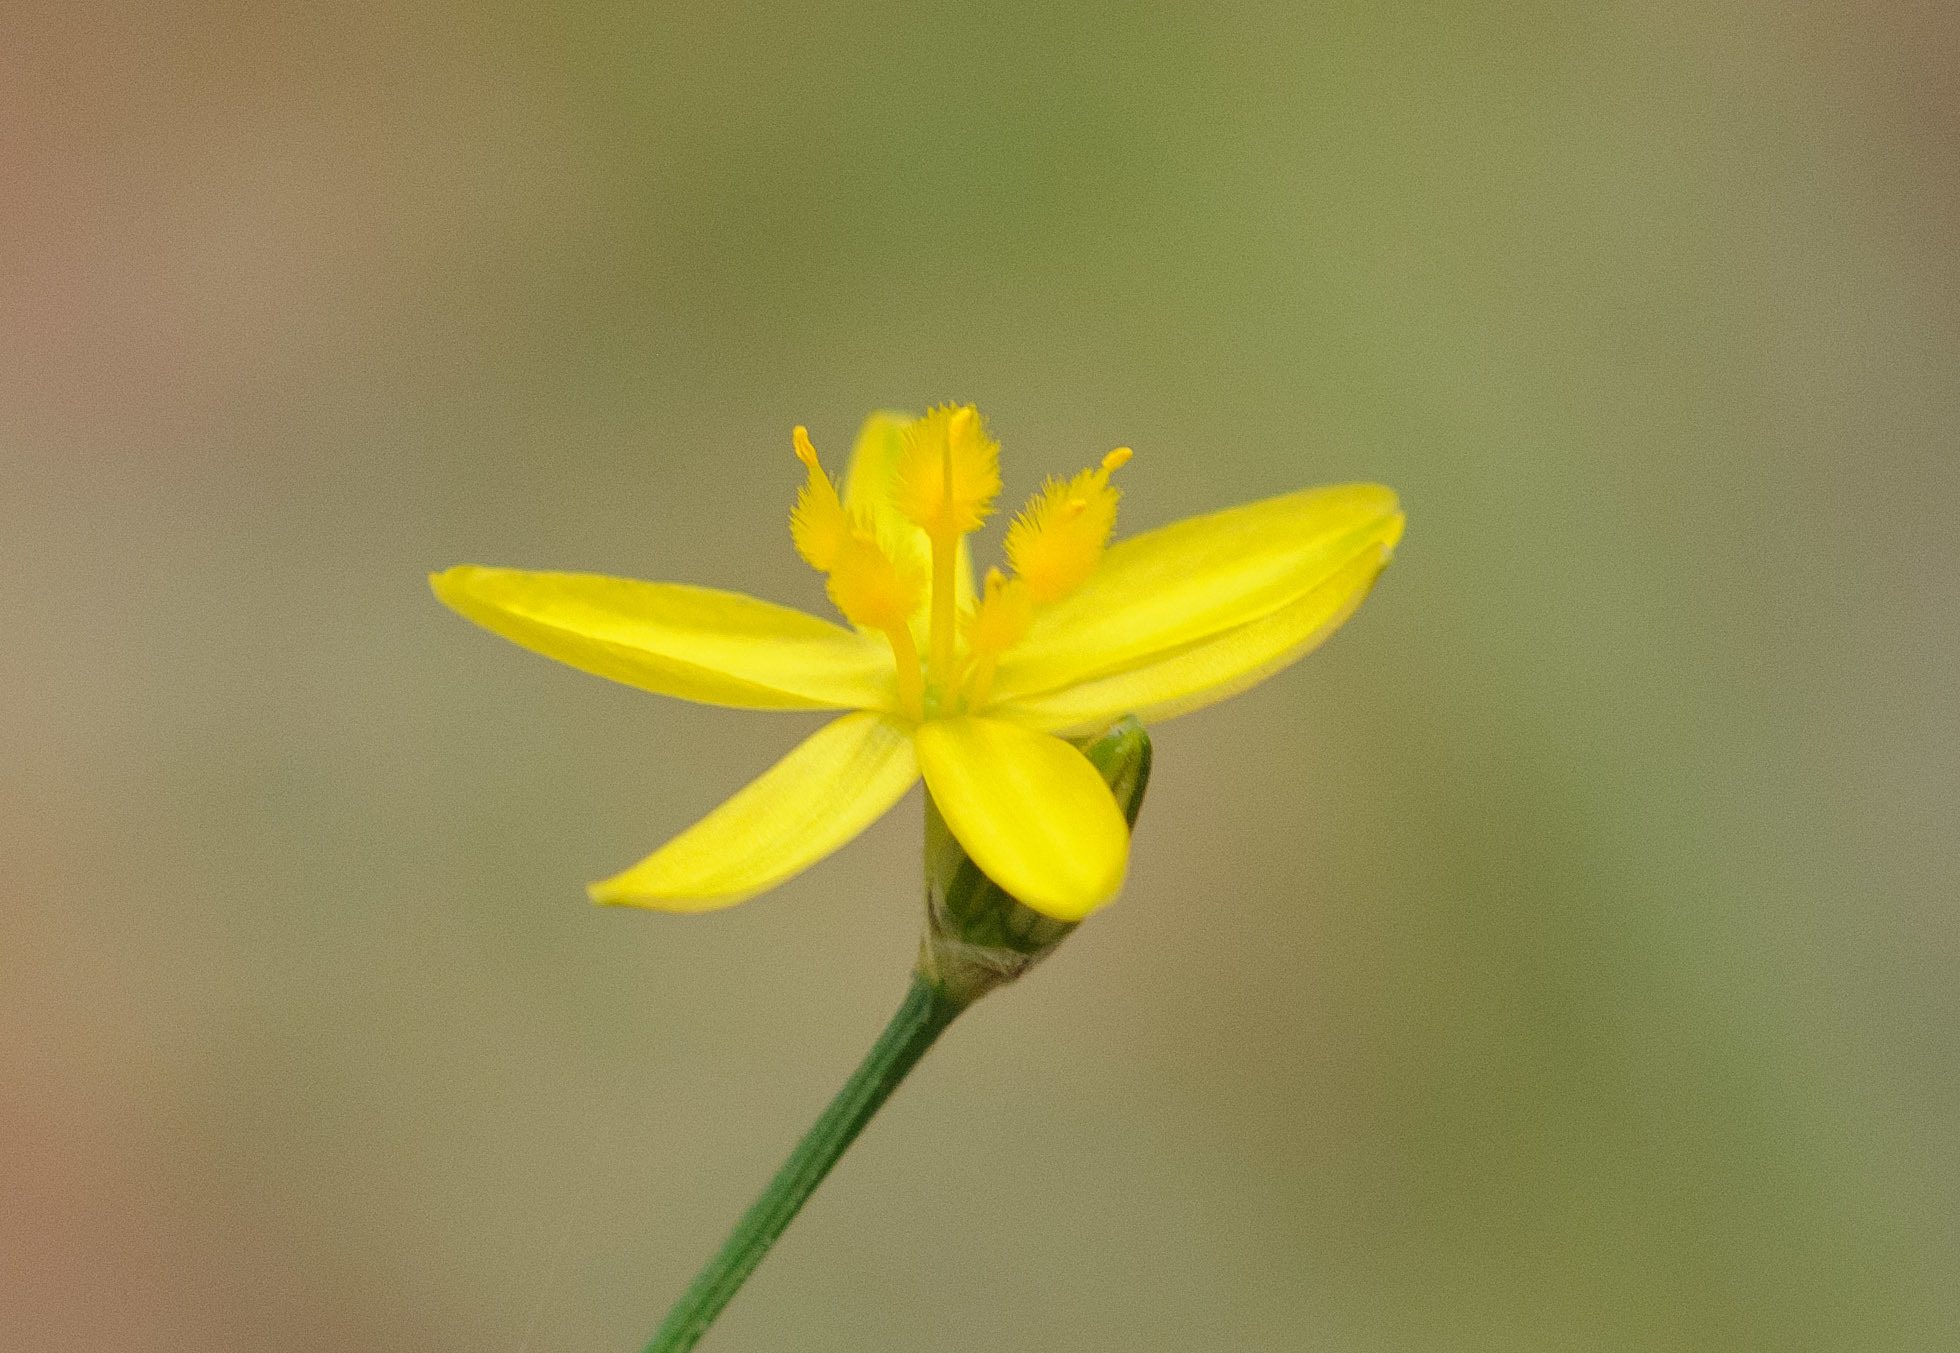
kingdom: Plantae
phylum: Tracheophyta
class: Liliopsida
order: Asparagales
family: Asphodelaceae
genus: Tricoryne
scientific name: Tricoryne elatior
